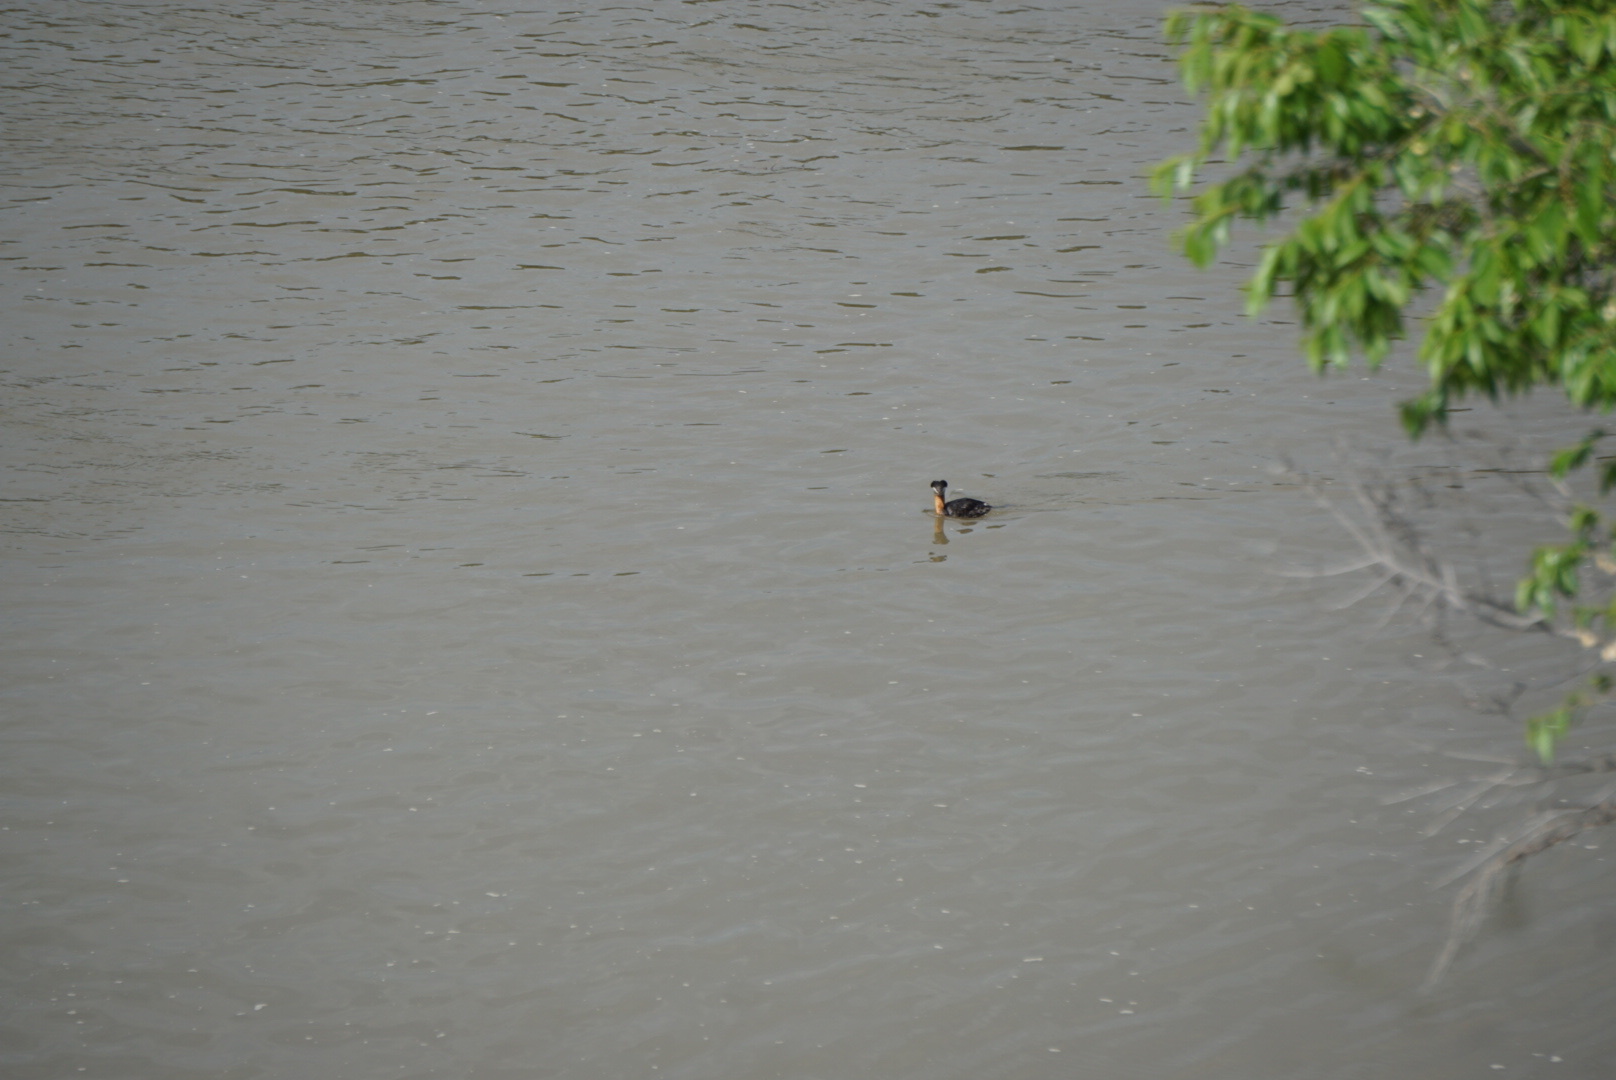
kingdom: Animalia
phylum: Chordata
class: Aves
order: Podicipediformes
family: Podicipedidae
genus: Podiceps
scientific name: Podiceps grisegena
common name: Red-necked grebe
